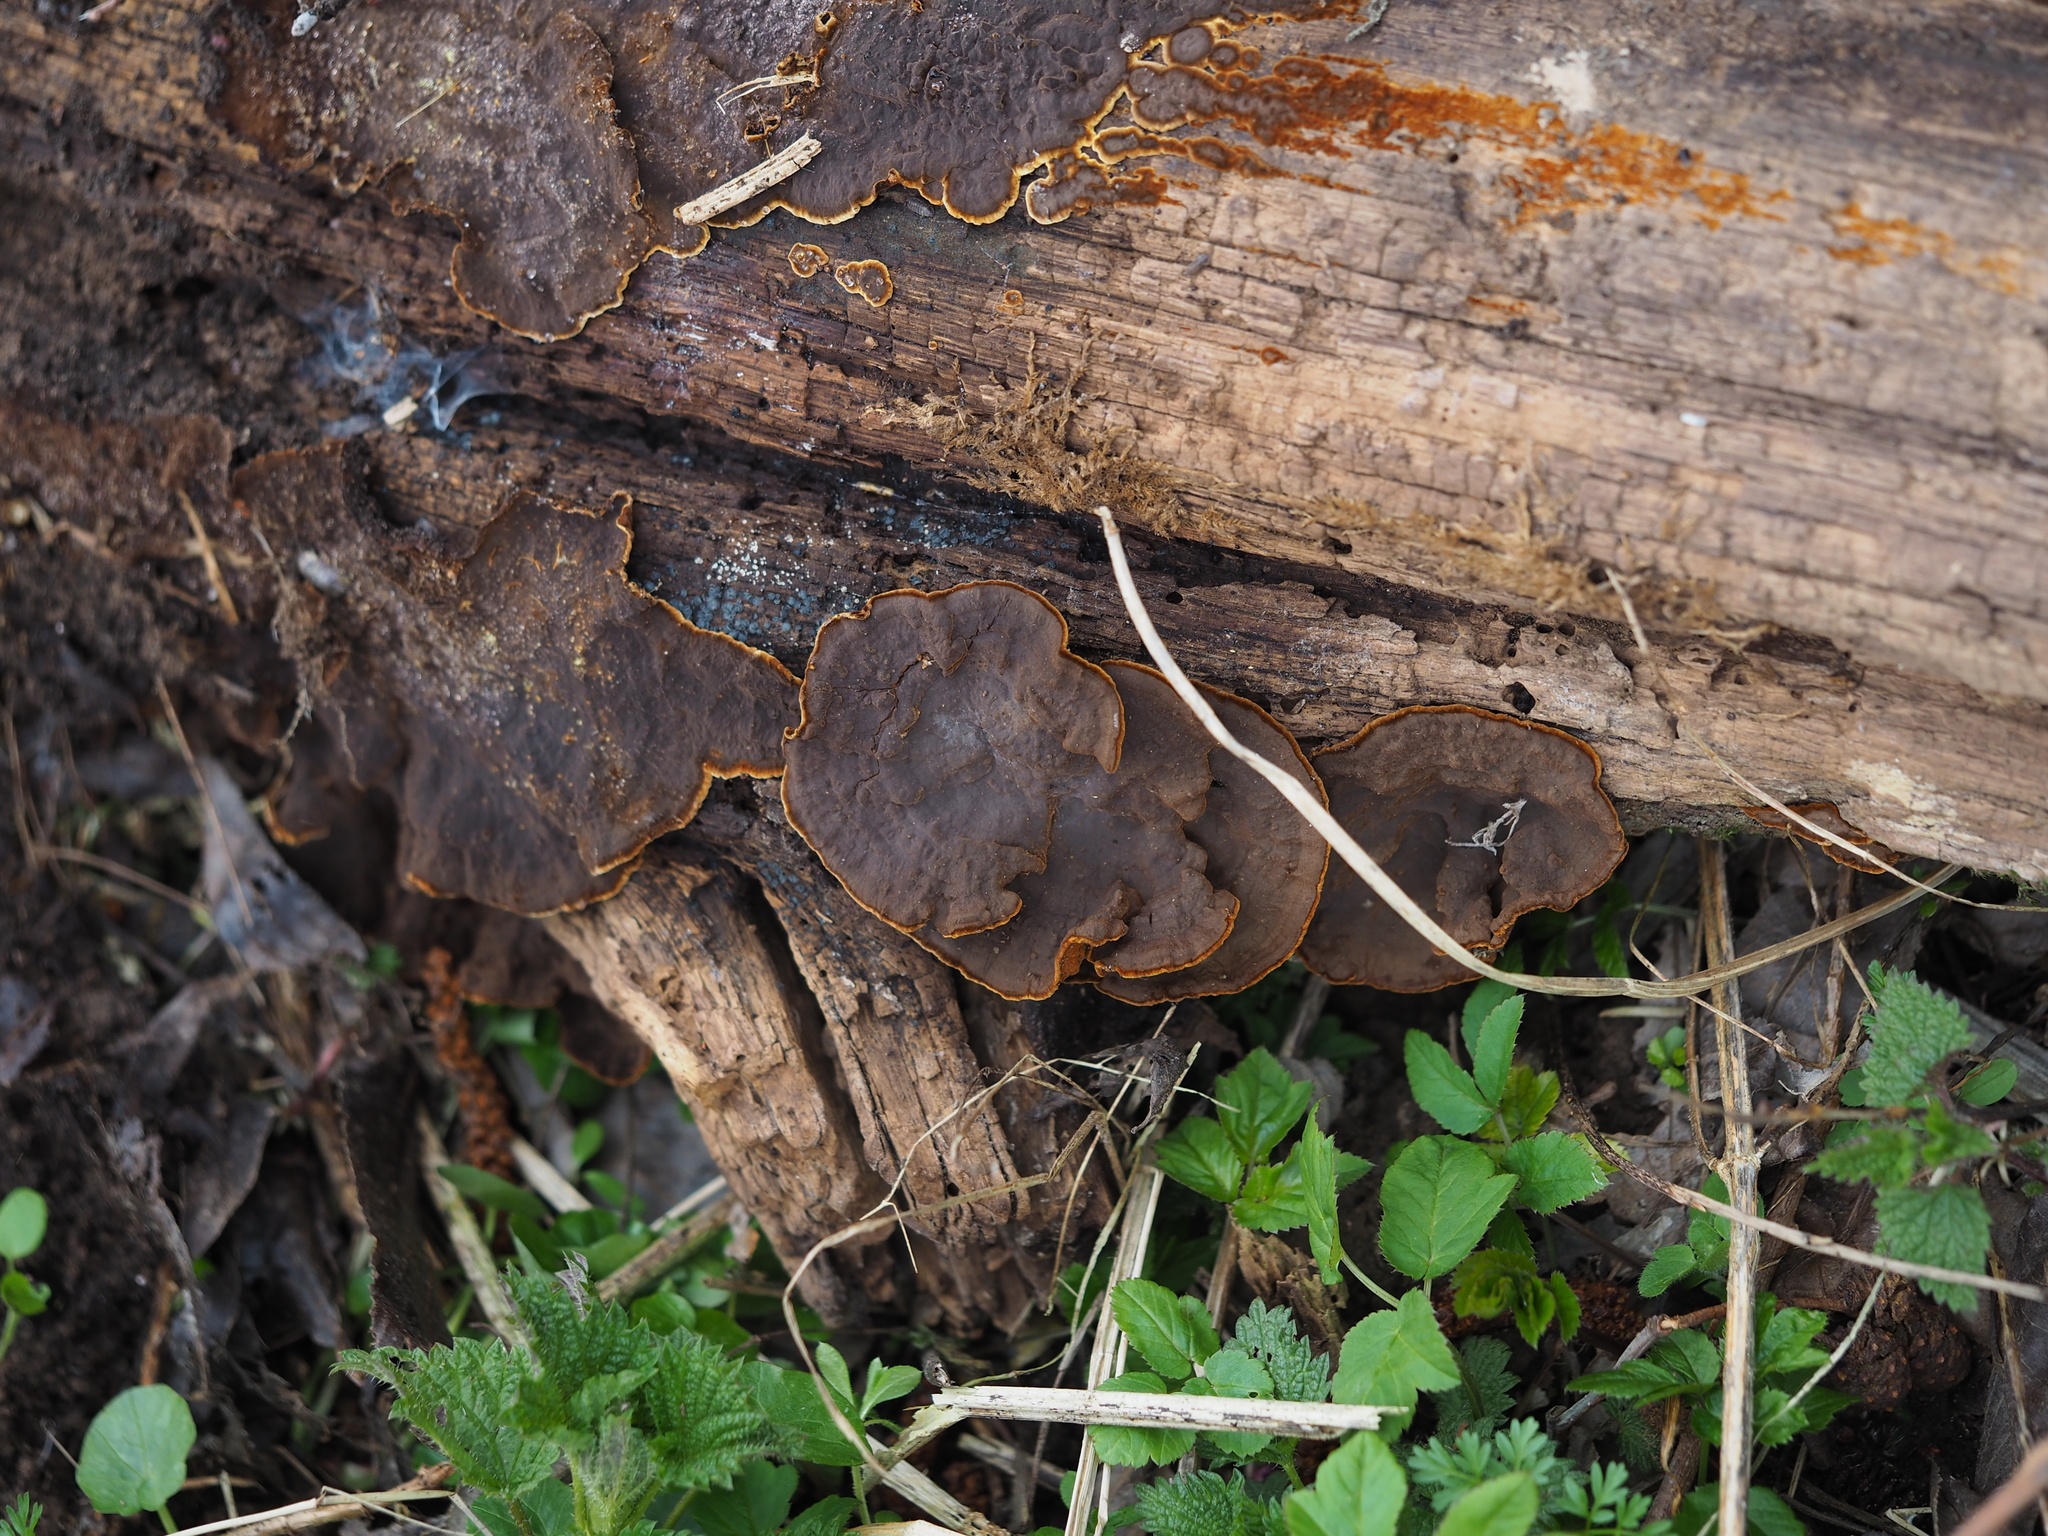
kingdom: Fungi
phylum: Basidiomycota
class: Agaricomycetes
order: Hymenochaetales
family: Hymenochaetaceae
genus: Hymenochaete
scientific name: Hymenochaete rubiginosa
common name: Oak curtain crust
